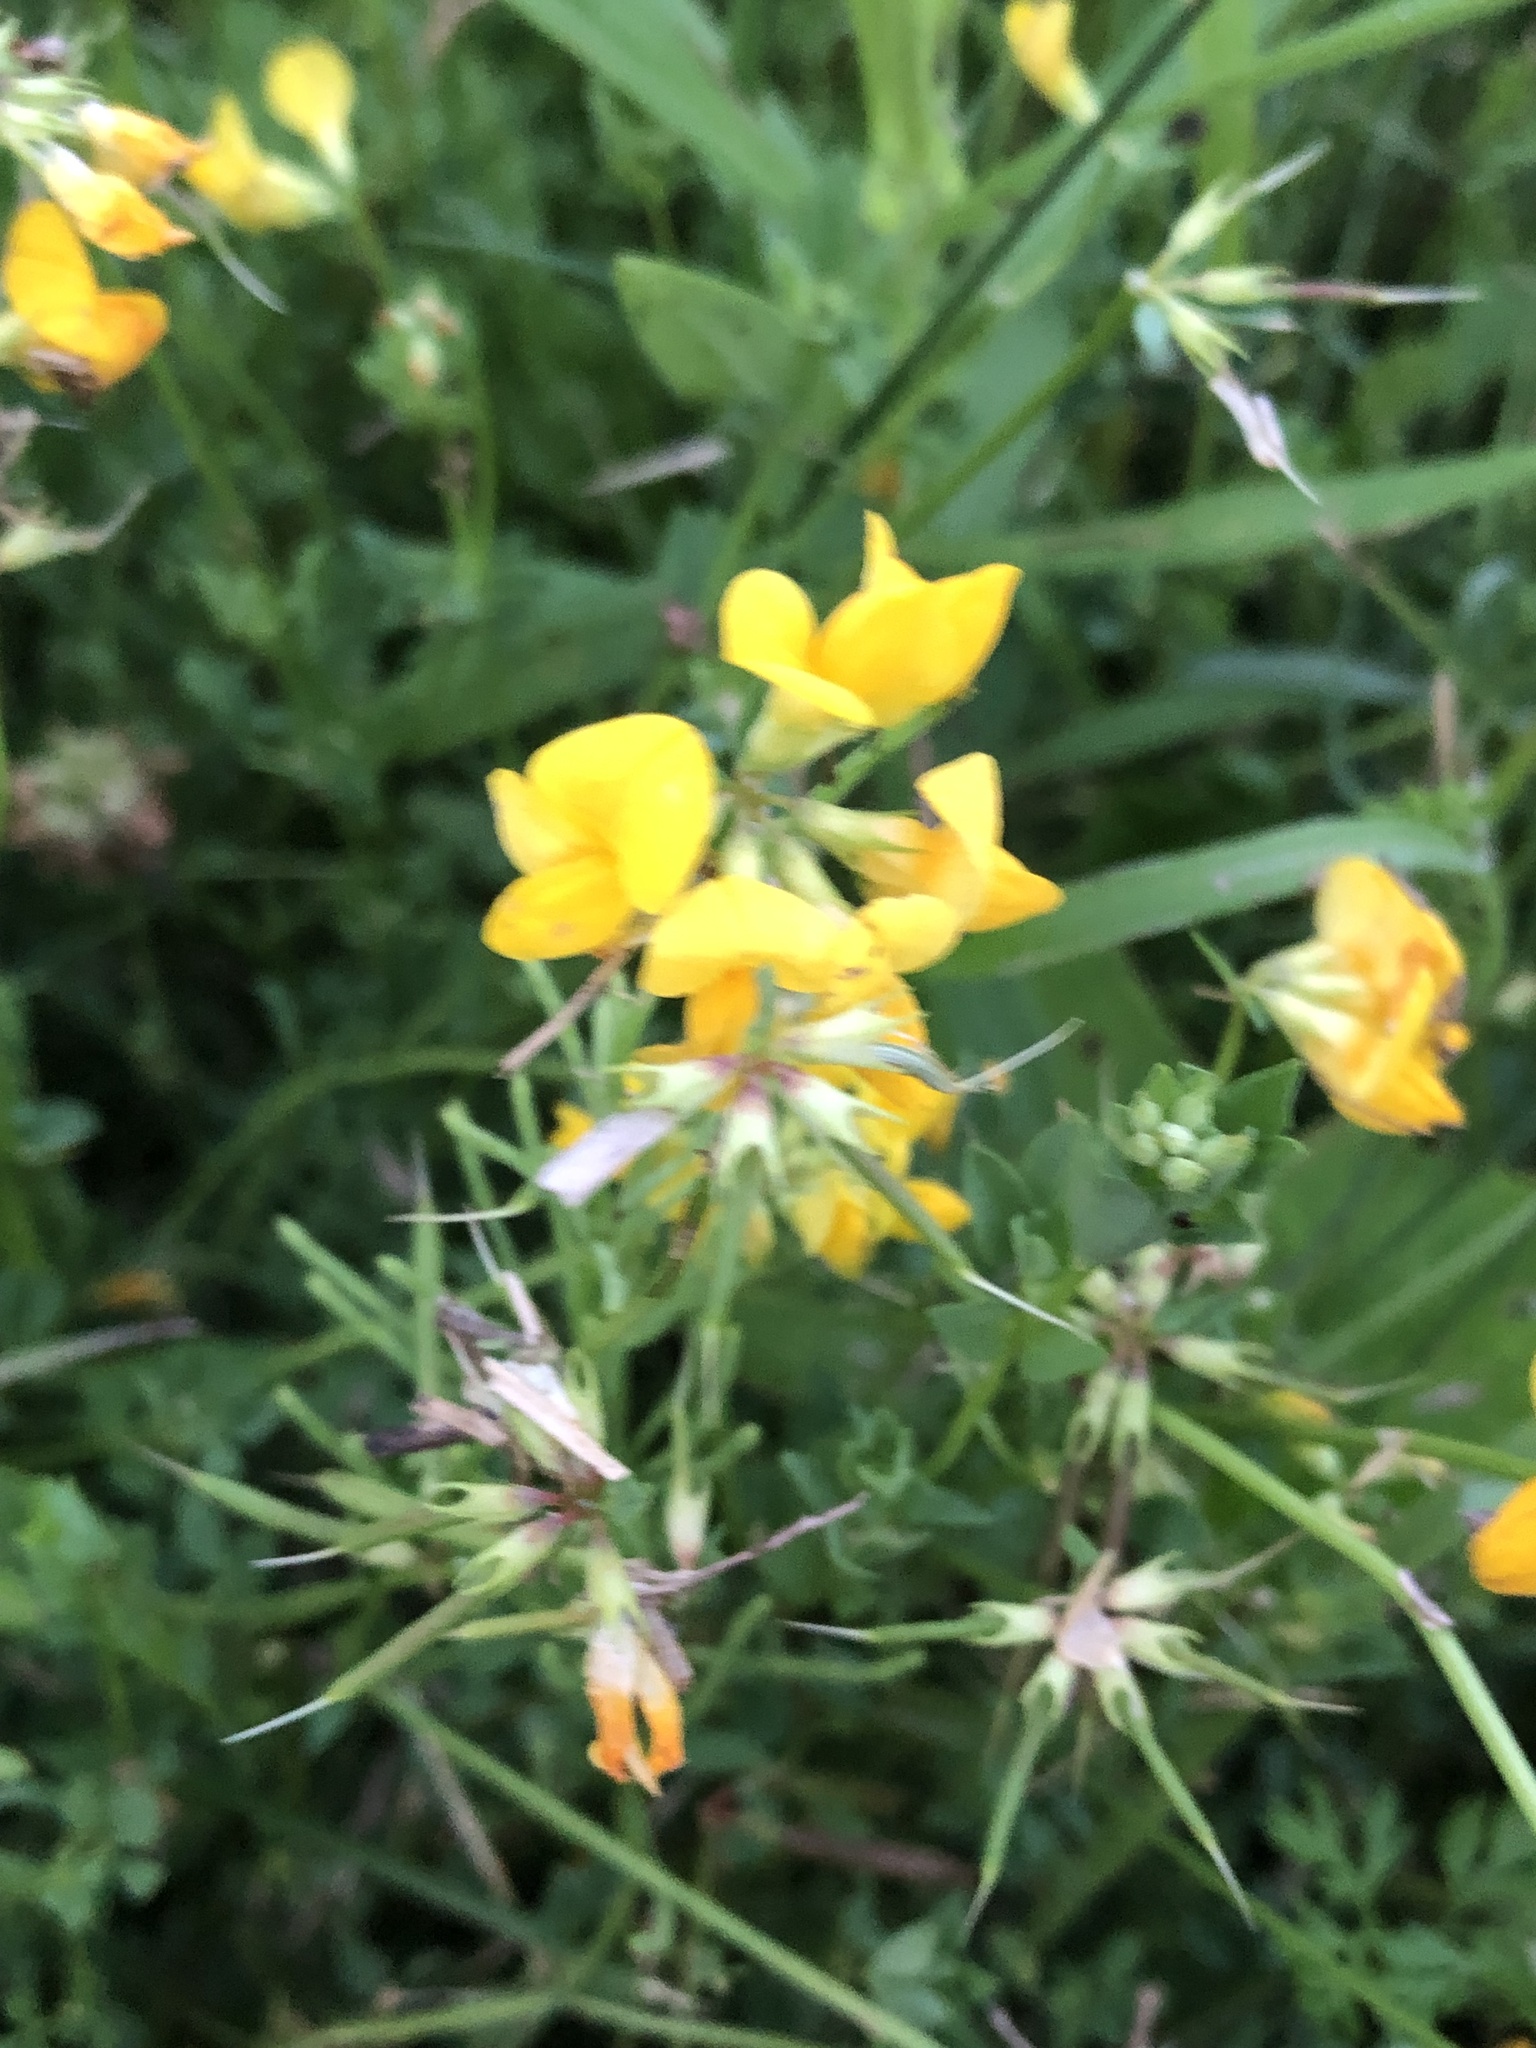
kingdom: Plantae
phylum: Tracheophyta
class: Magnoliopsida
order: Fabales
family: Fabaceae
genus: Lotus
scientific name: Lotus corniculatus
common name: Common bird's-foot-trefoil
